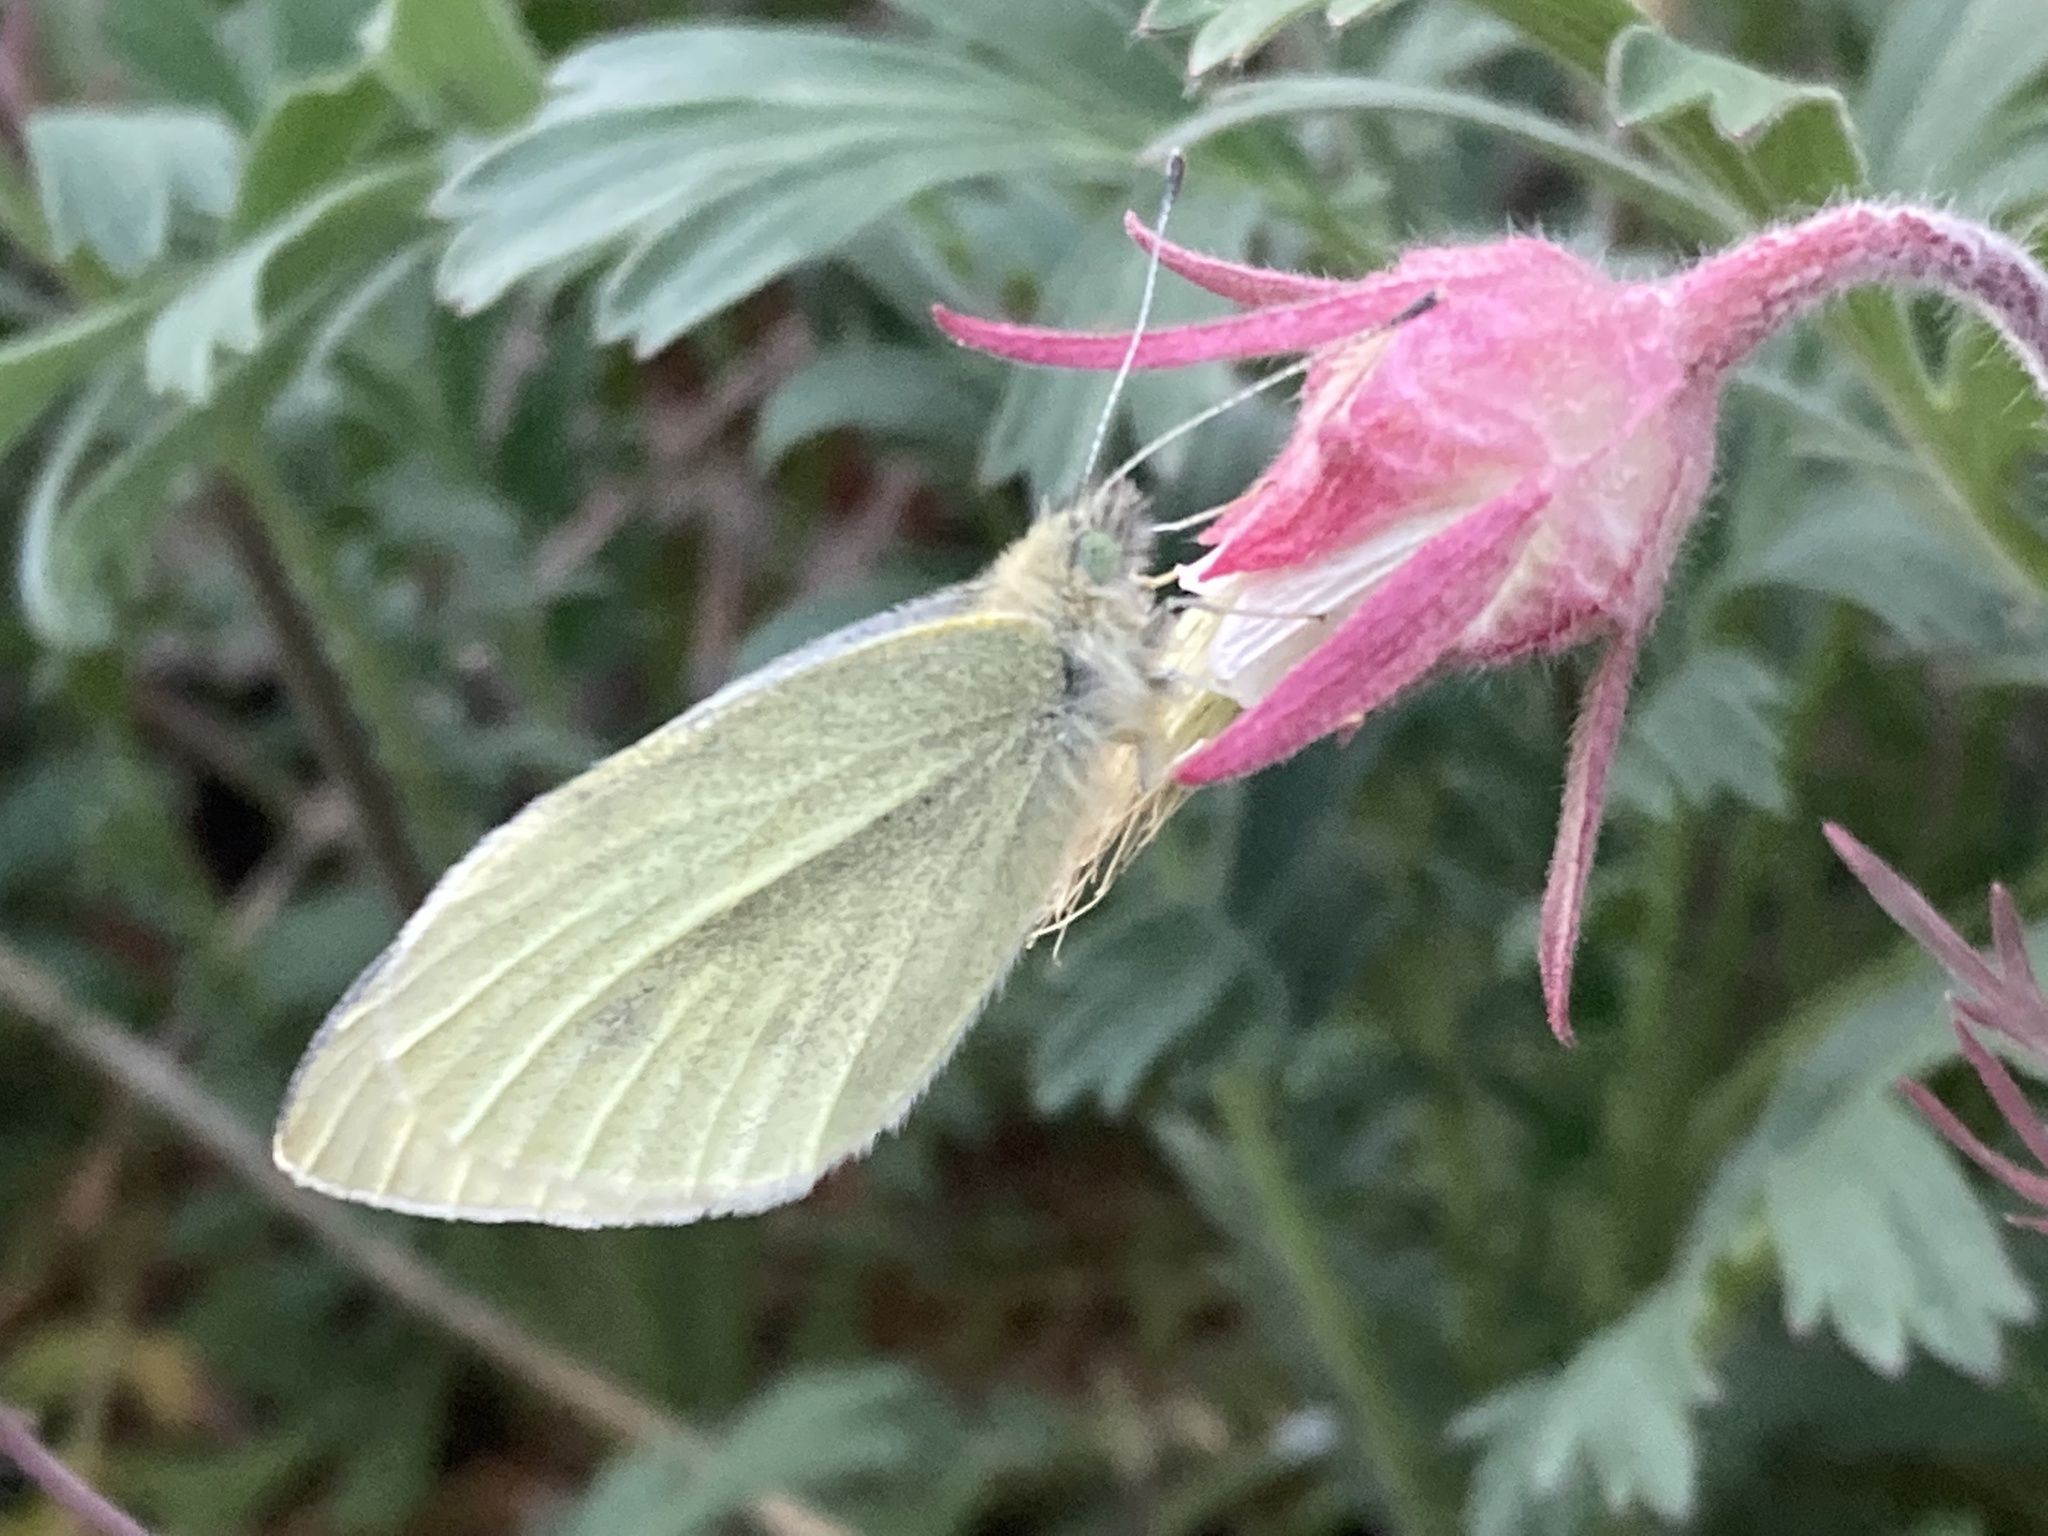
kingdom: Animalia
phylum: Arthropoda
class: Insecta
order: Lepidoptera
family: Pieridae
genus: Pieris
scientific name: Pieris rapae
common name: Small white
